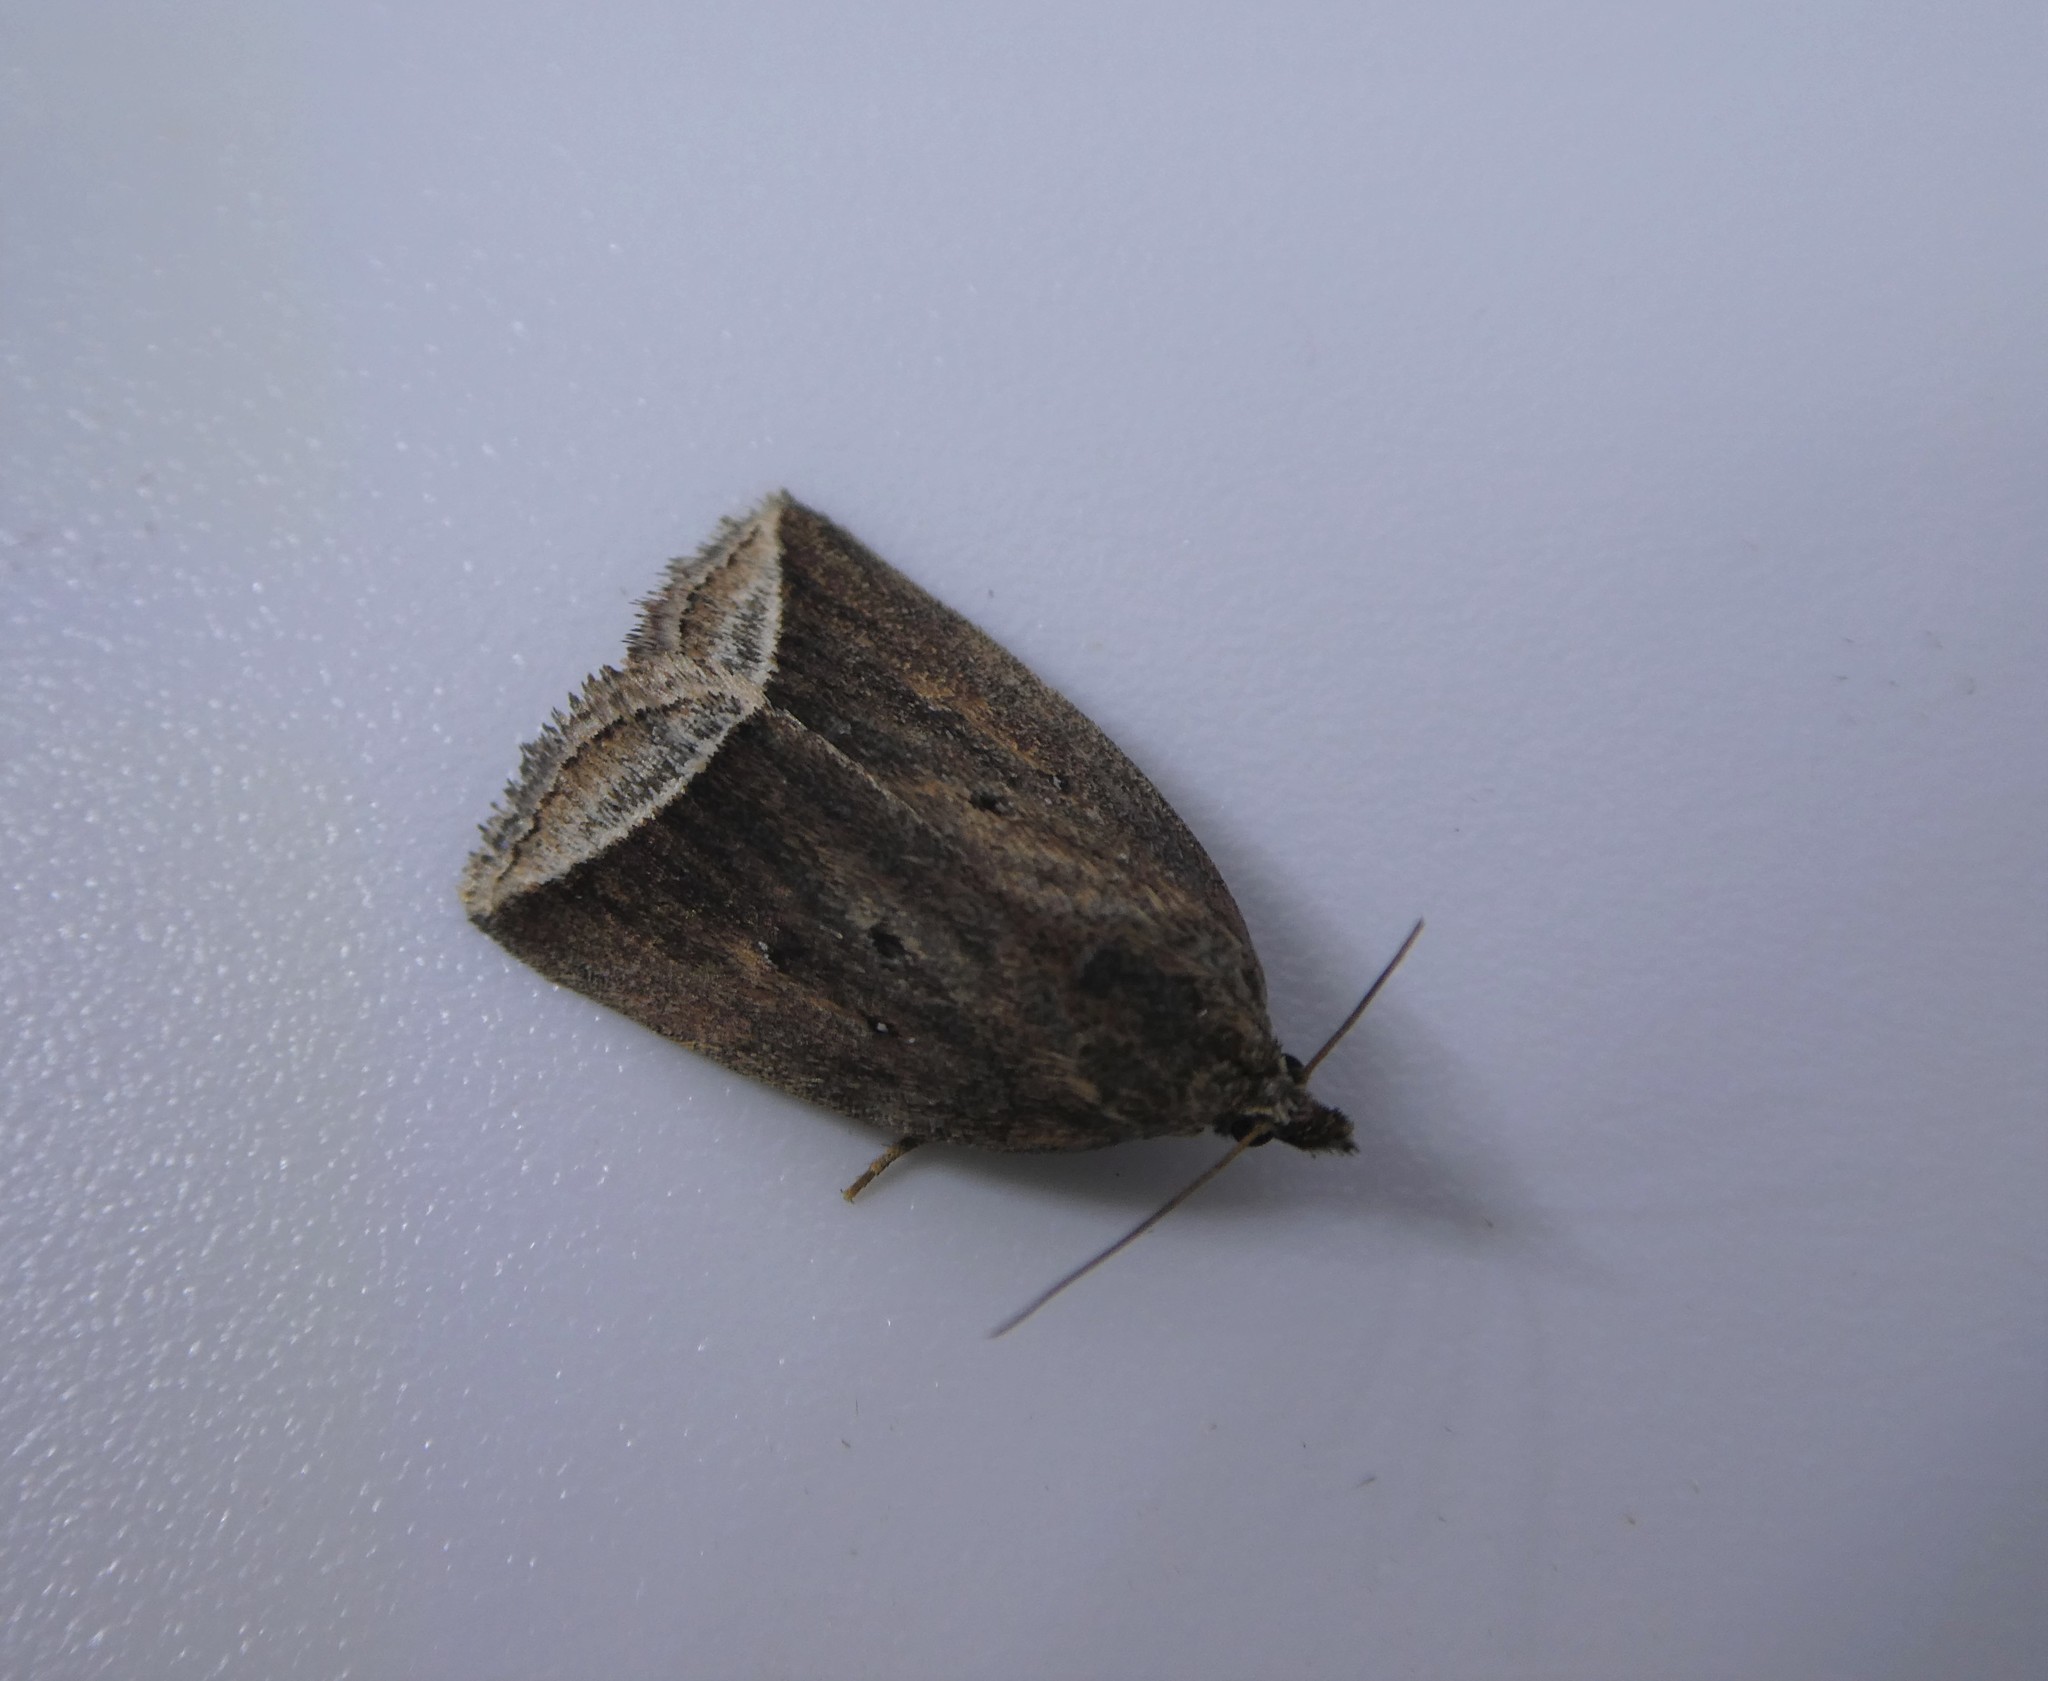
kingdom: Animalia
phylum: Arthropoda
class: Insecta
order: Lepidoptera
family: Erebidae
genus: Capis
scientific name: Capis curvata
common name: Curved halter moth
